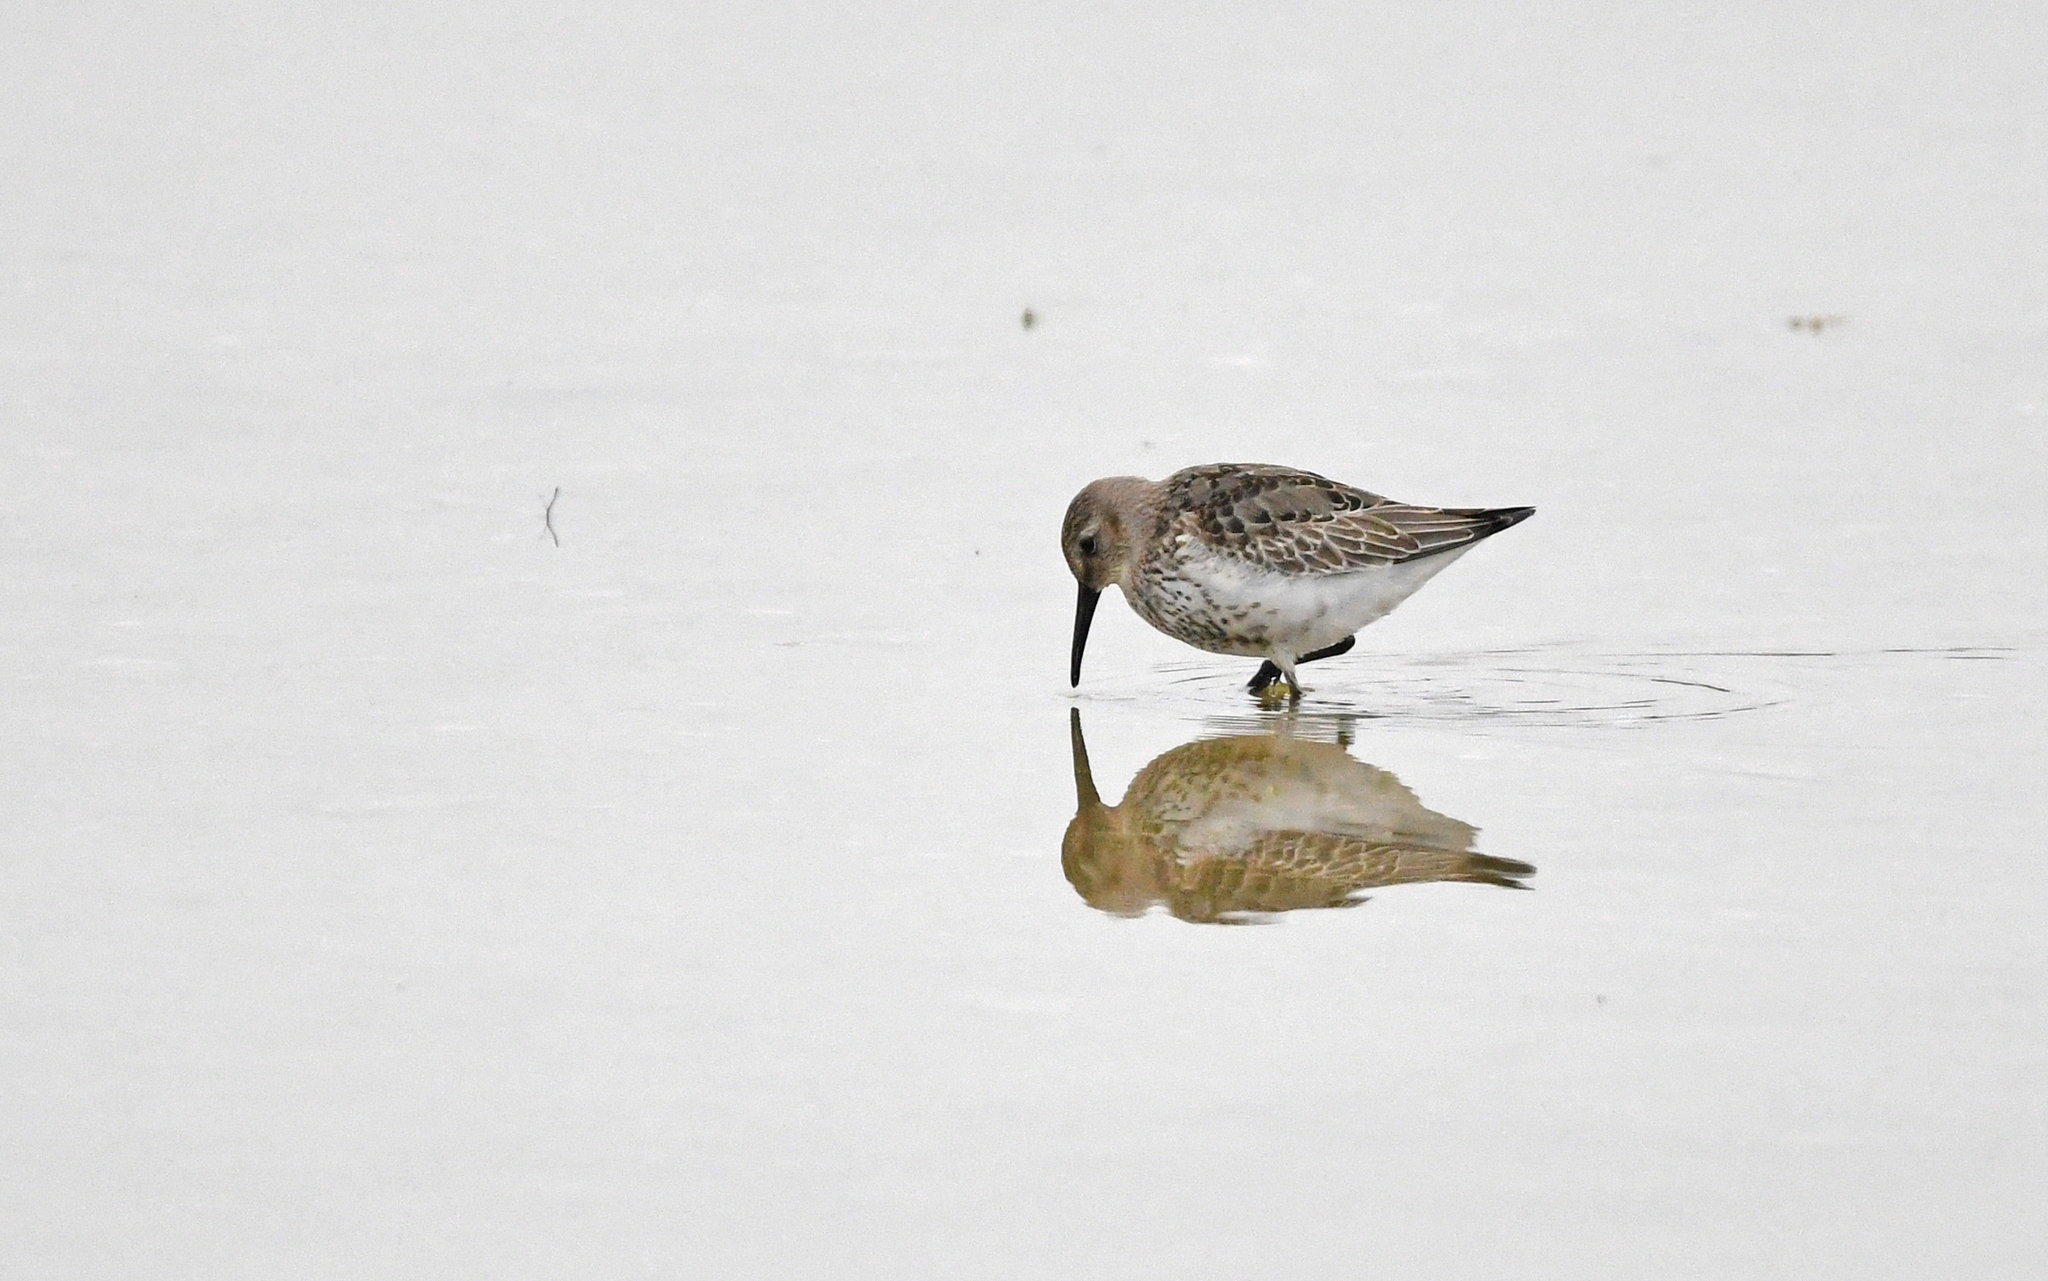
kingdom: Animalia
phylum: Chordata
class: Aves
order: Charadriiformes
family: Scolopacidae
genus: Calidris
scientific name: Calidris alpina
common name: Dunlin
